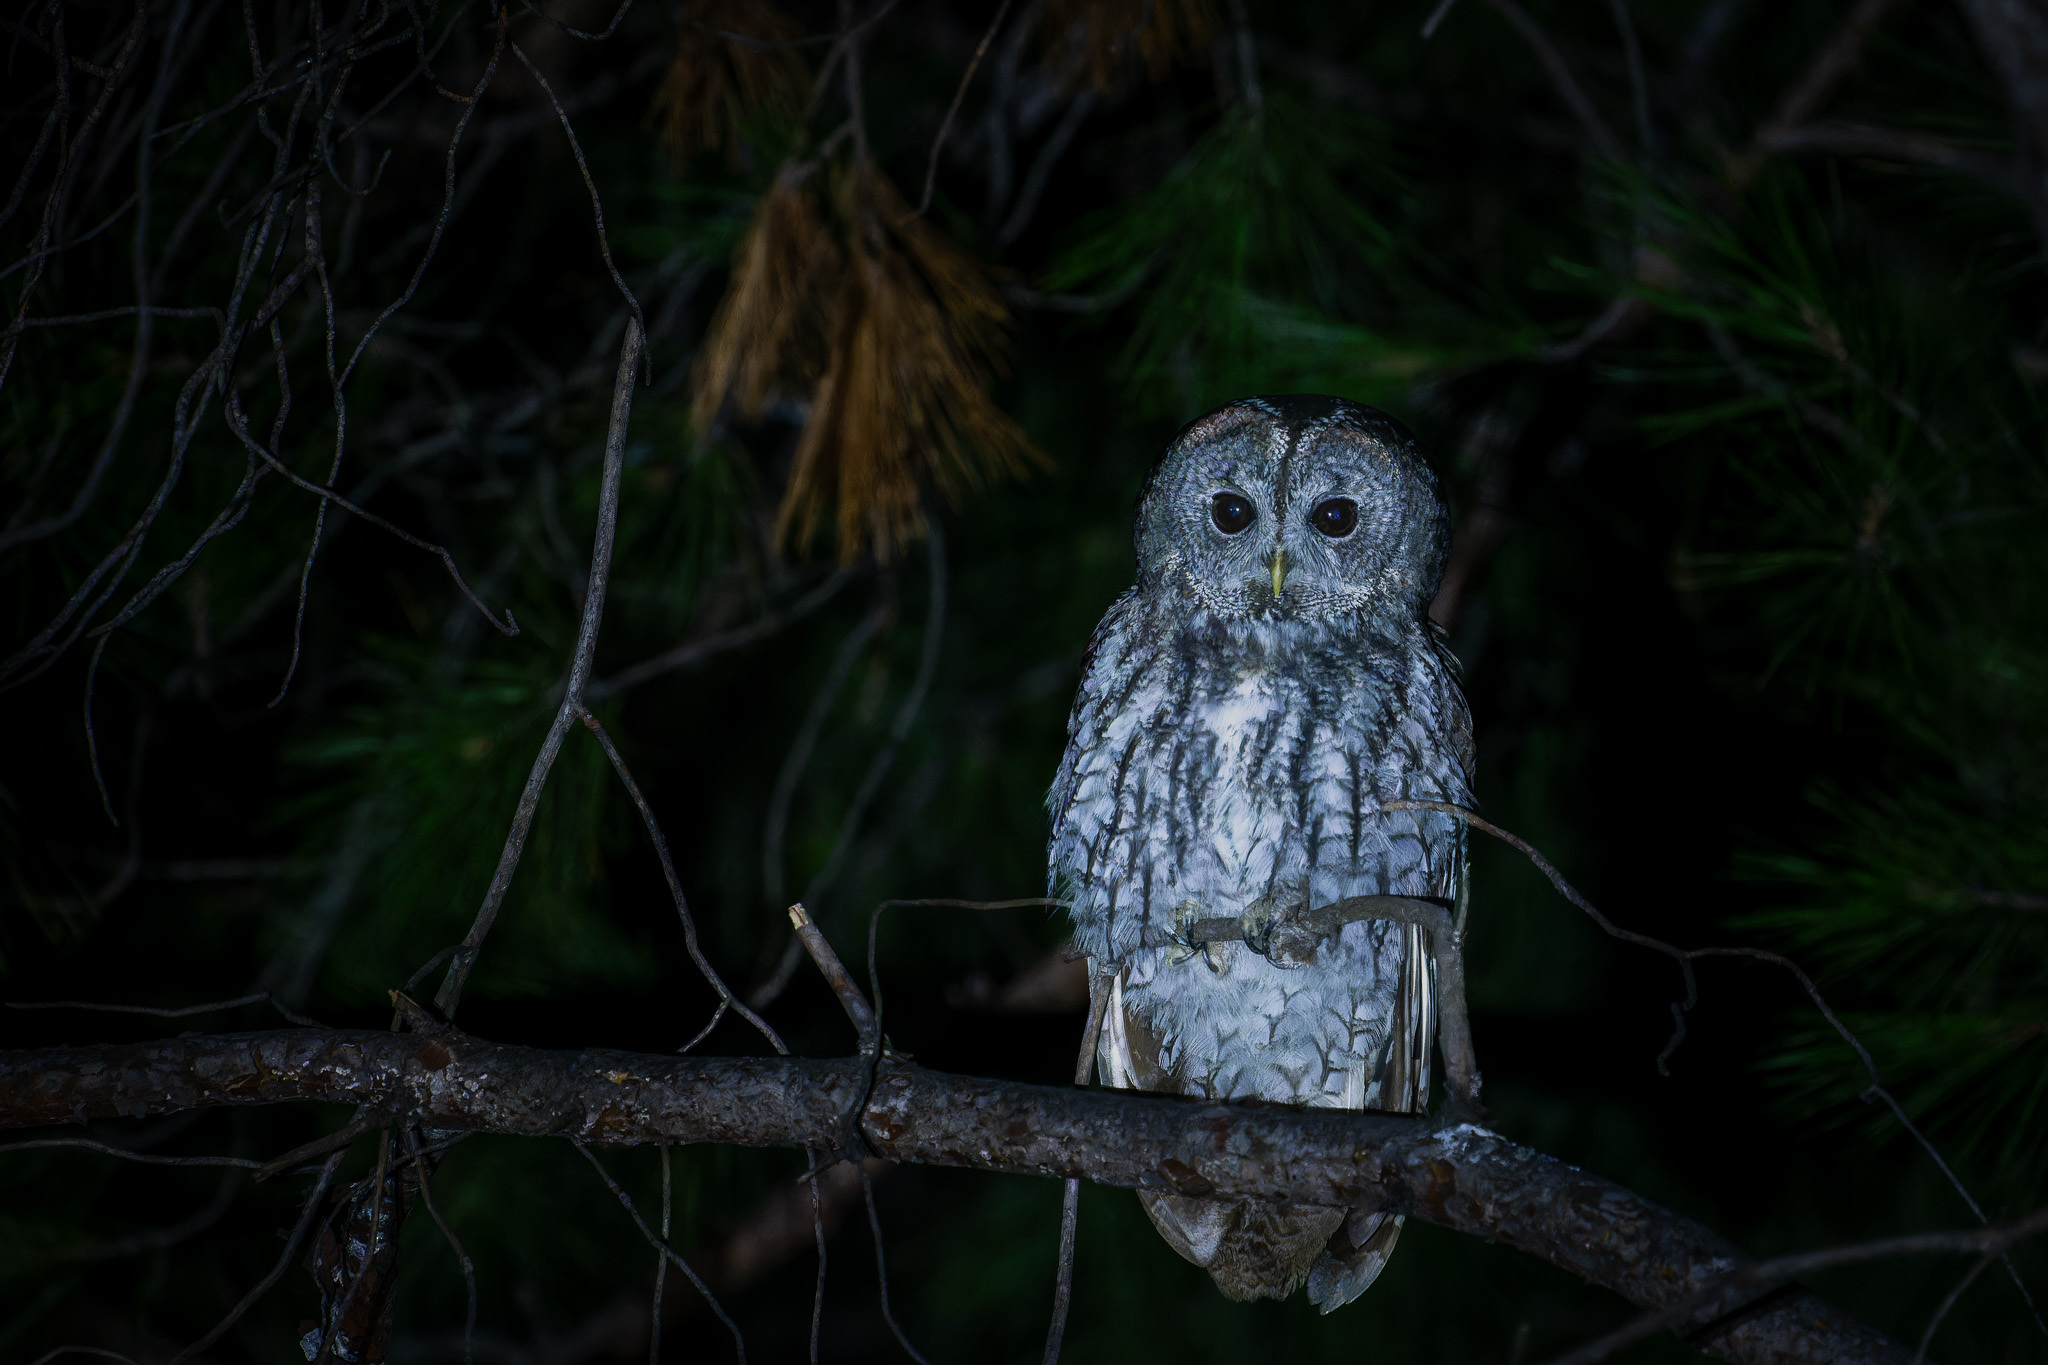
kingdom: Animalia
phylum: Chordata
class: Aves
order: Strigiformes
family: Strigidae
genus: Strix
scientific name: Strix aluco
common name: Tawny owl
